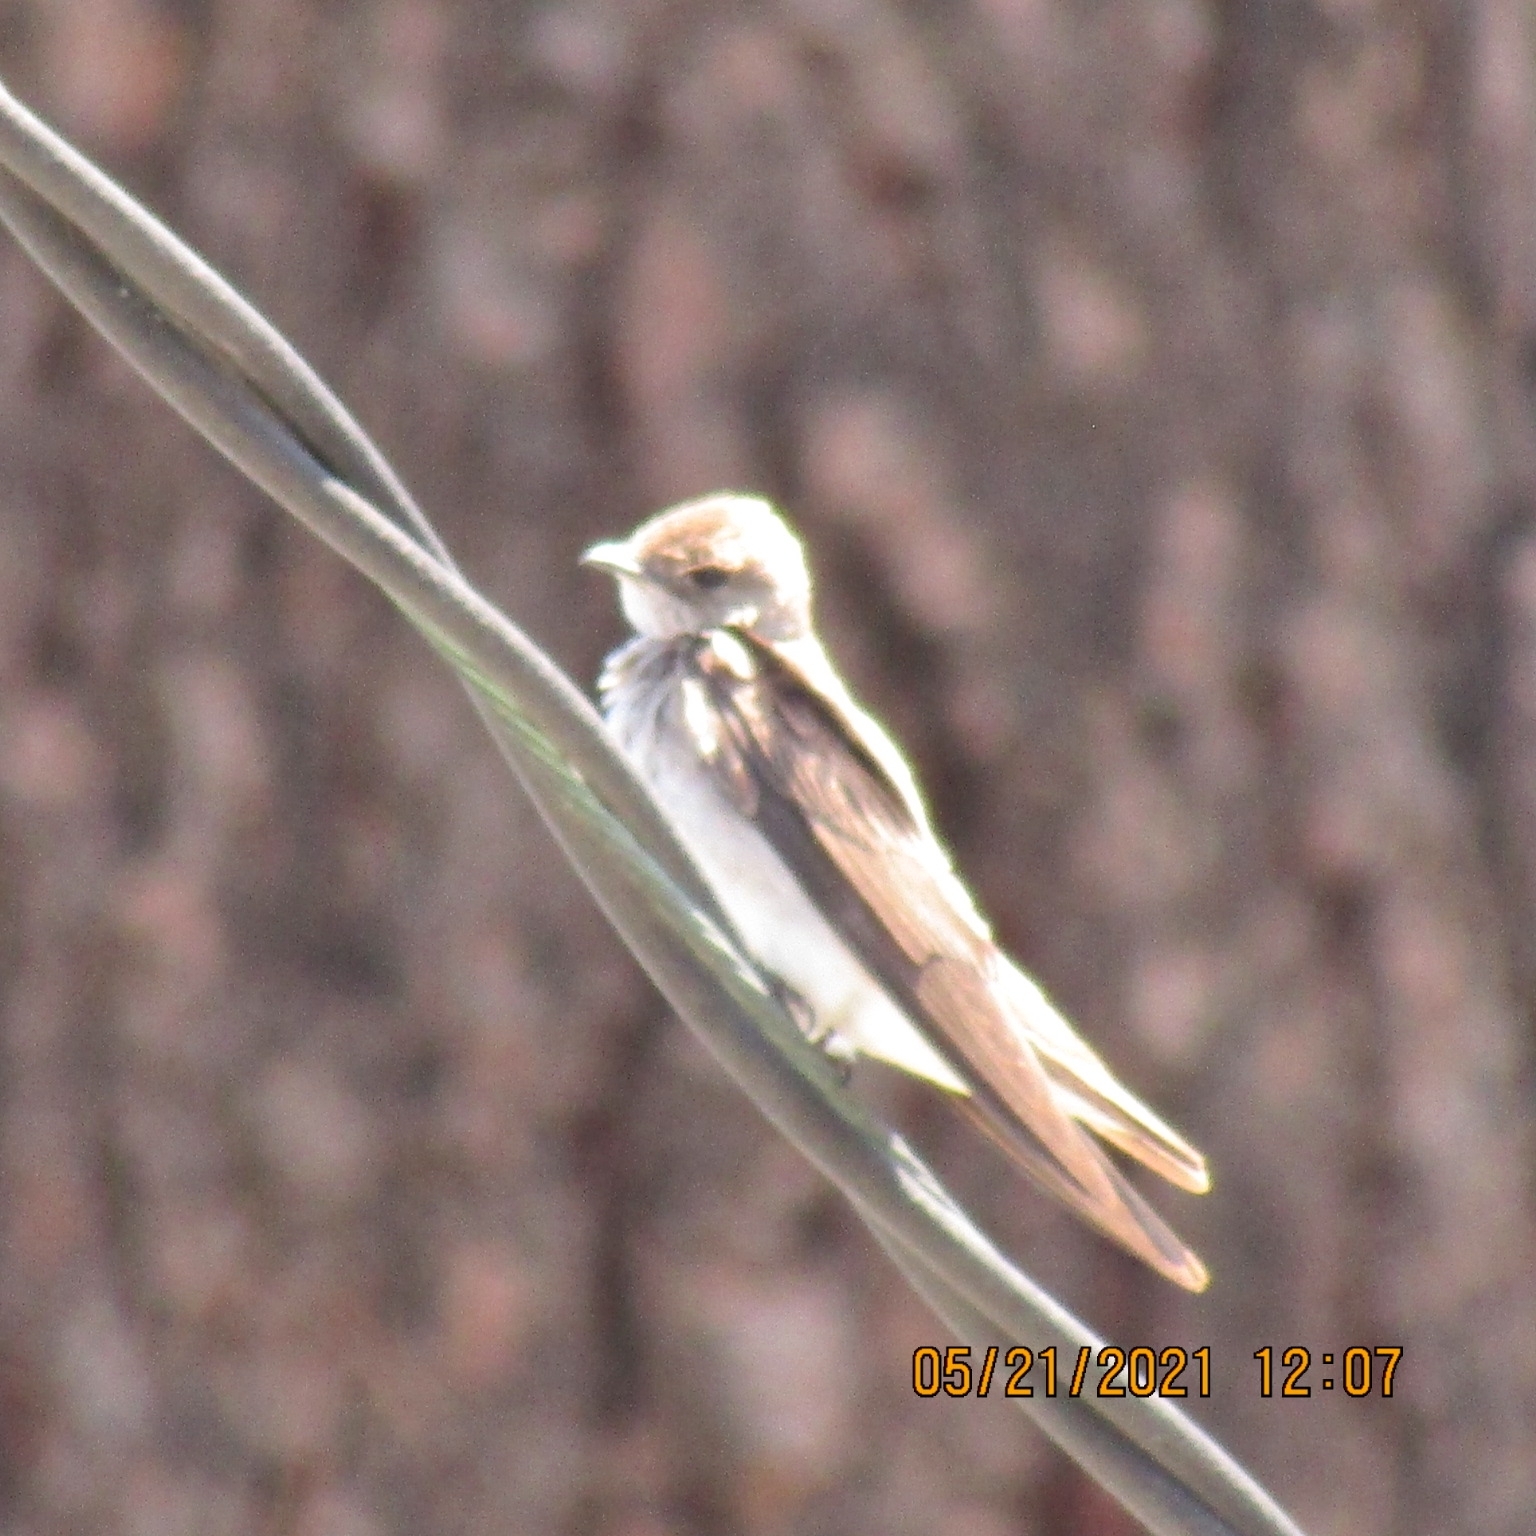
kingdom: Animalia
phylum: Chordata
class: Aves
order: Passeriformes
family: Hirundinidae
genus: Stelgidopteryx
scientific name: Stelgidopteryx serripennis
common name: Northern rough-winged swallow
